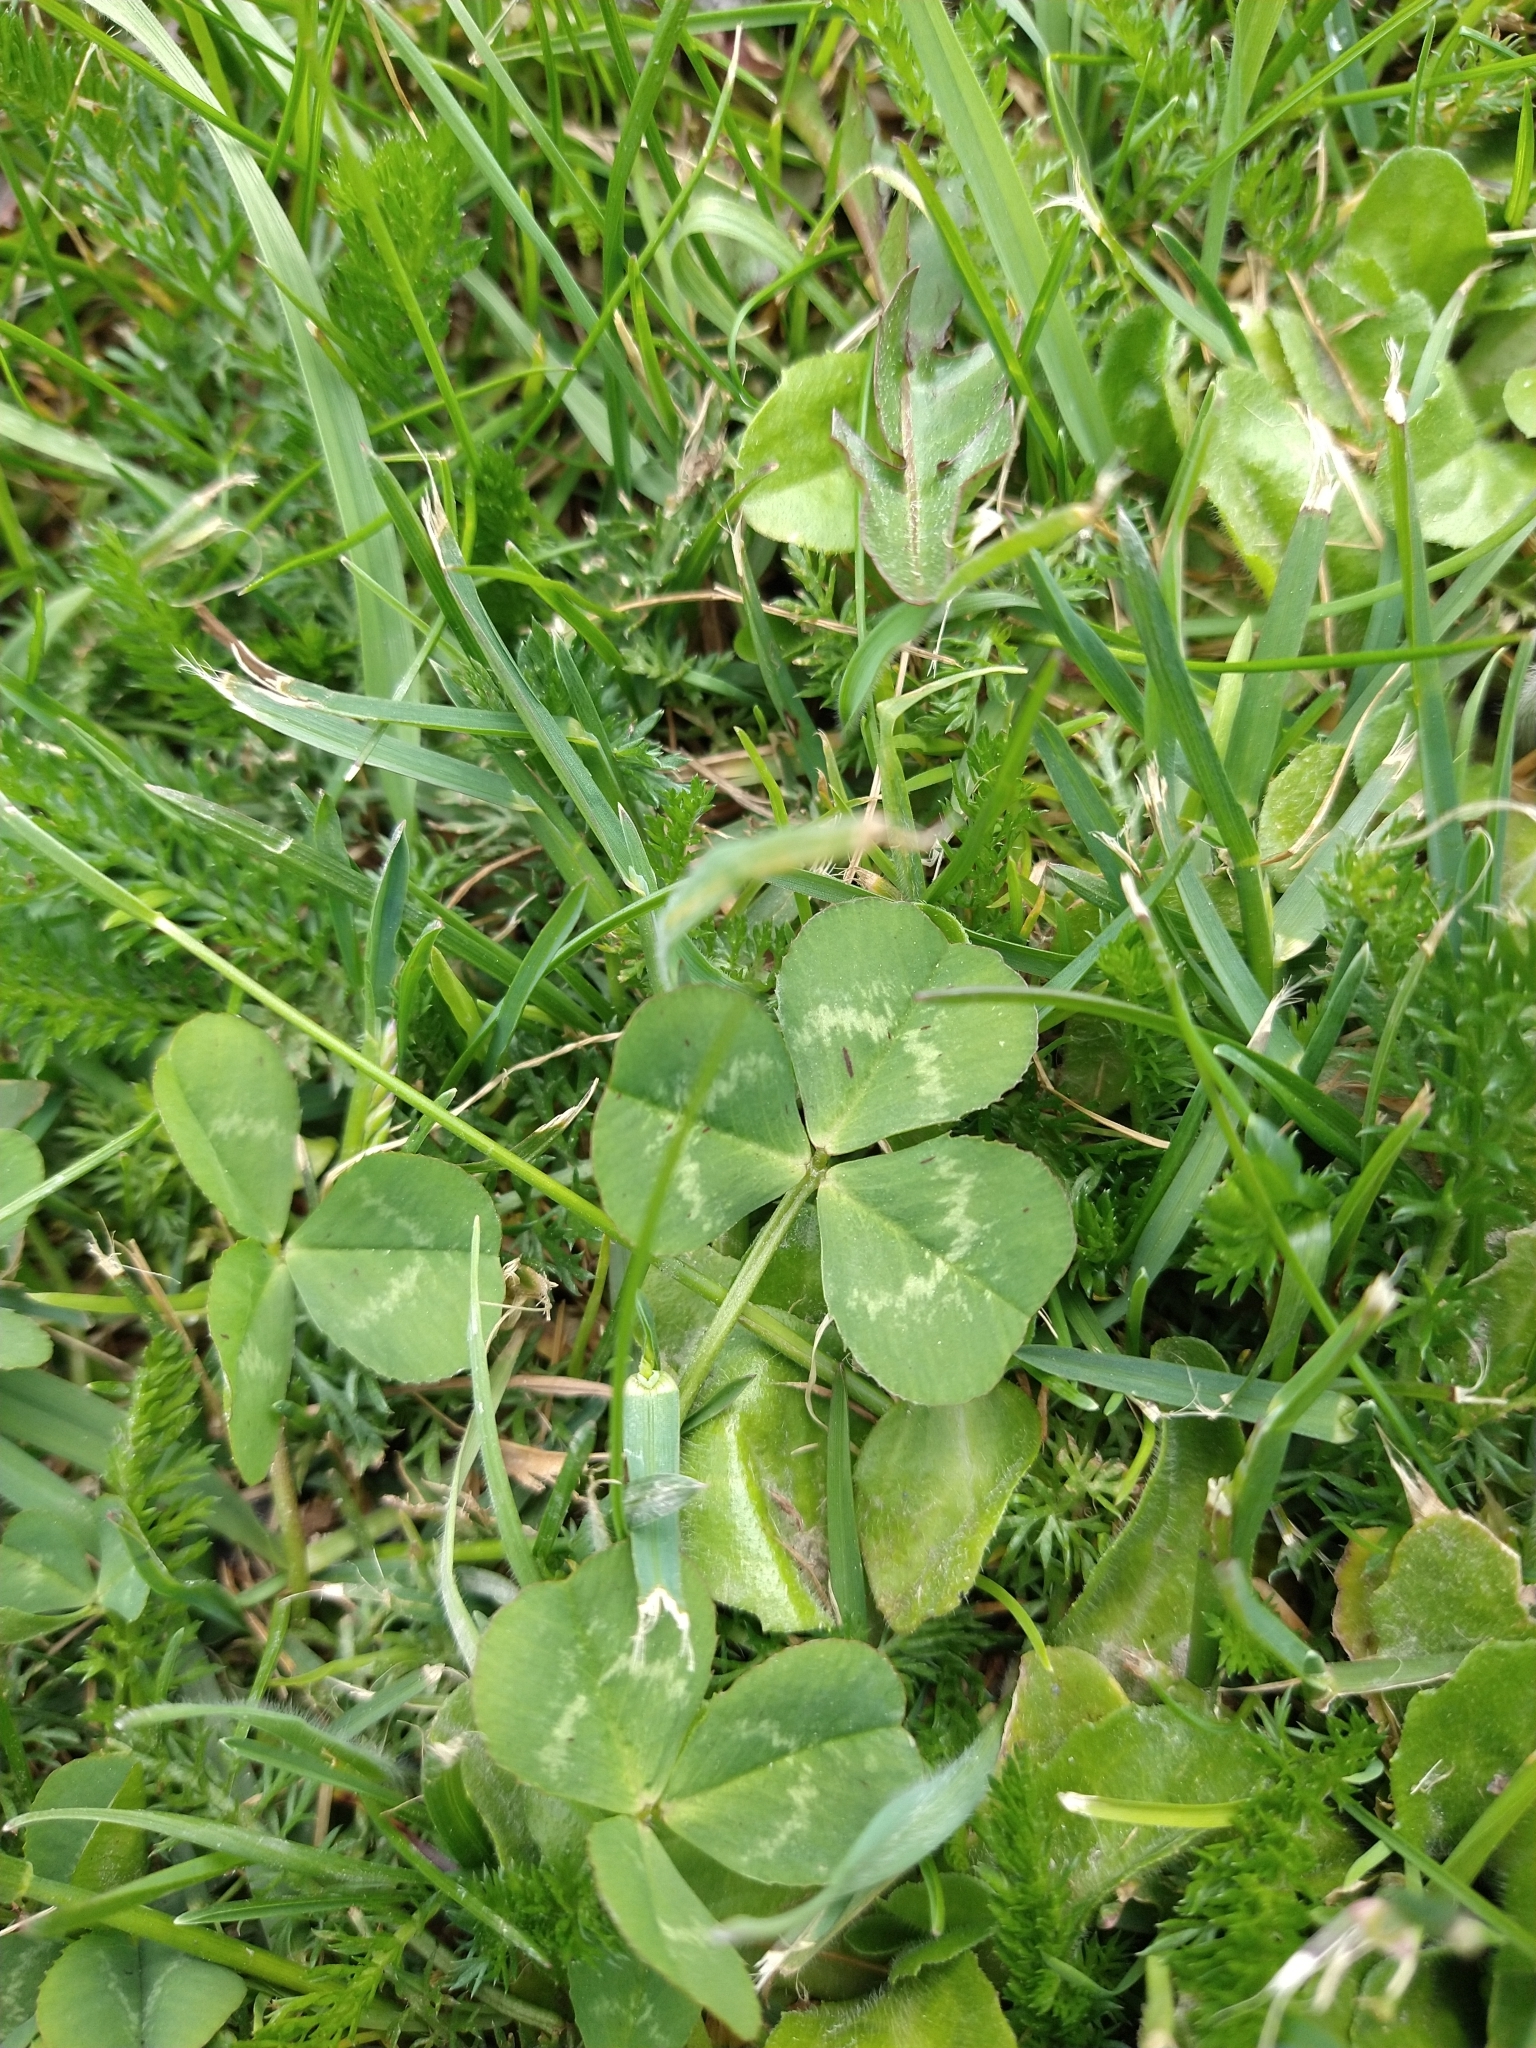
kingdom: Plantae
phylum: Tracheophyta
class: Magnoliopsida
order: Fabales
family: Fabaceae
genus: Trifolium
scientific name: Trifolium repens
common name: White clover
